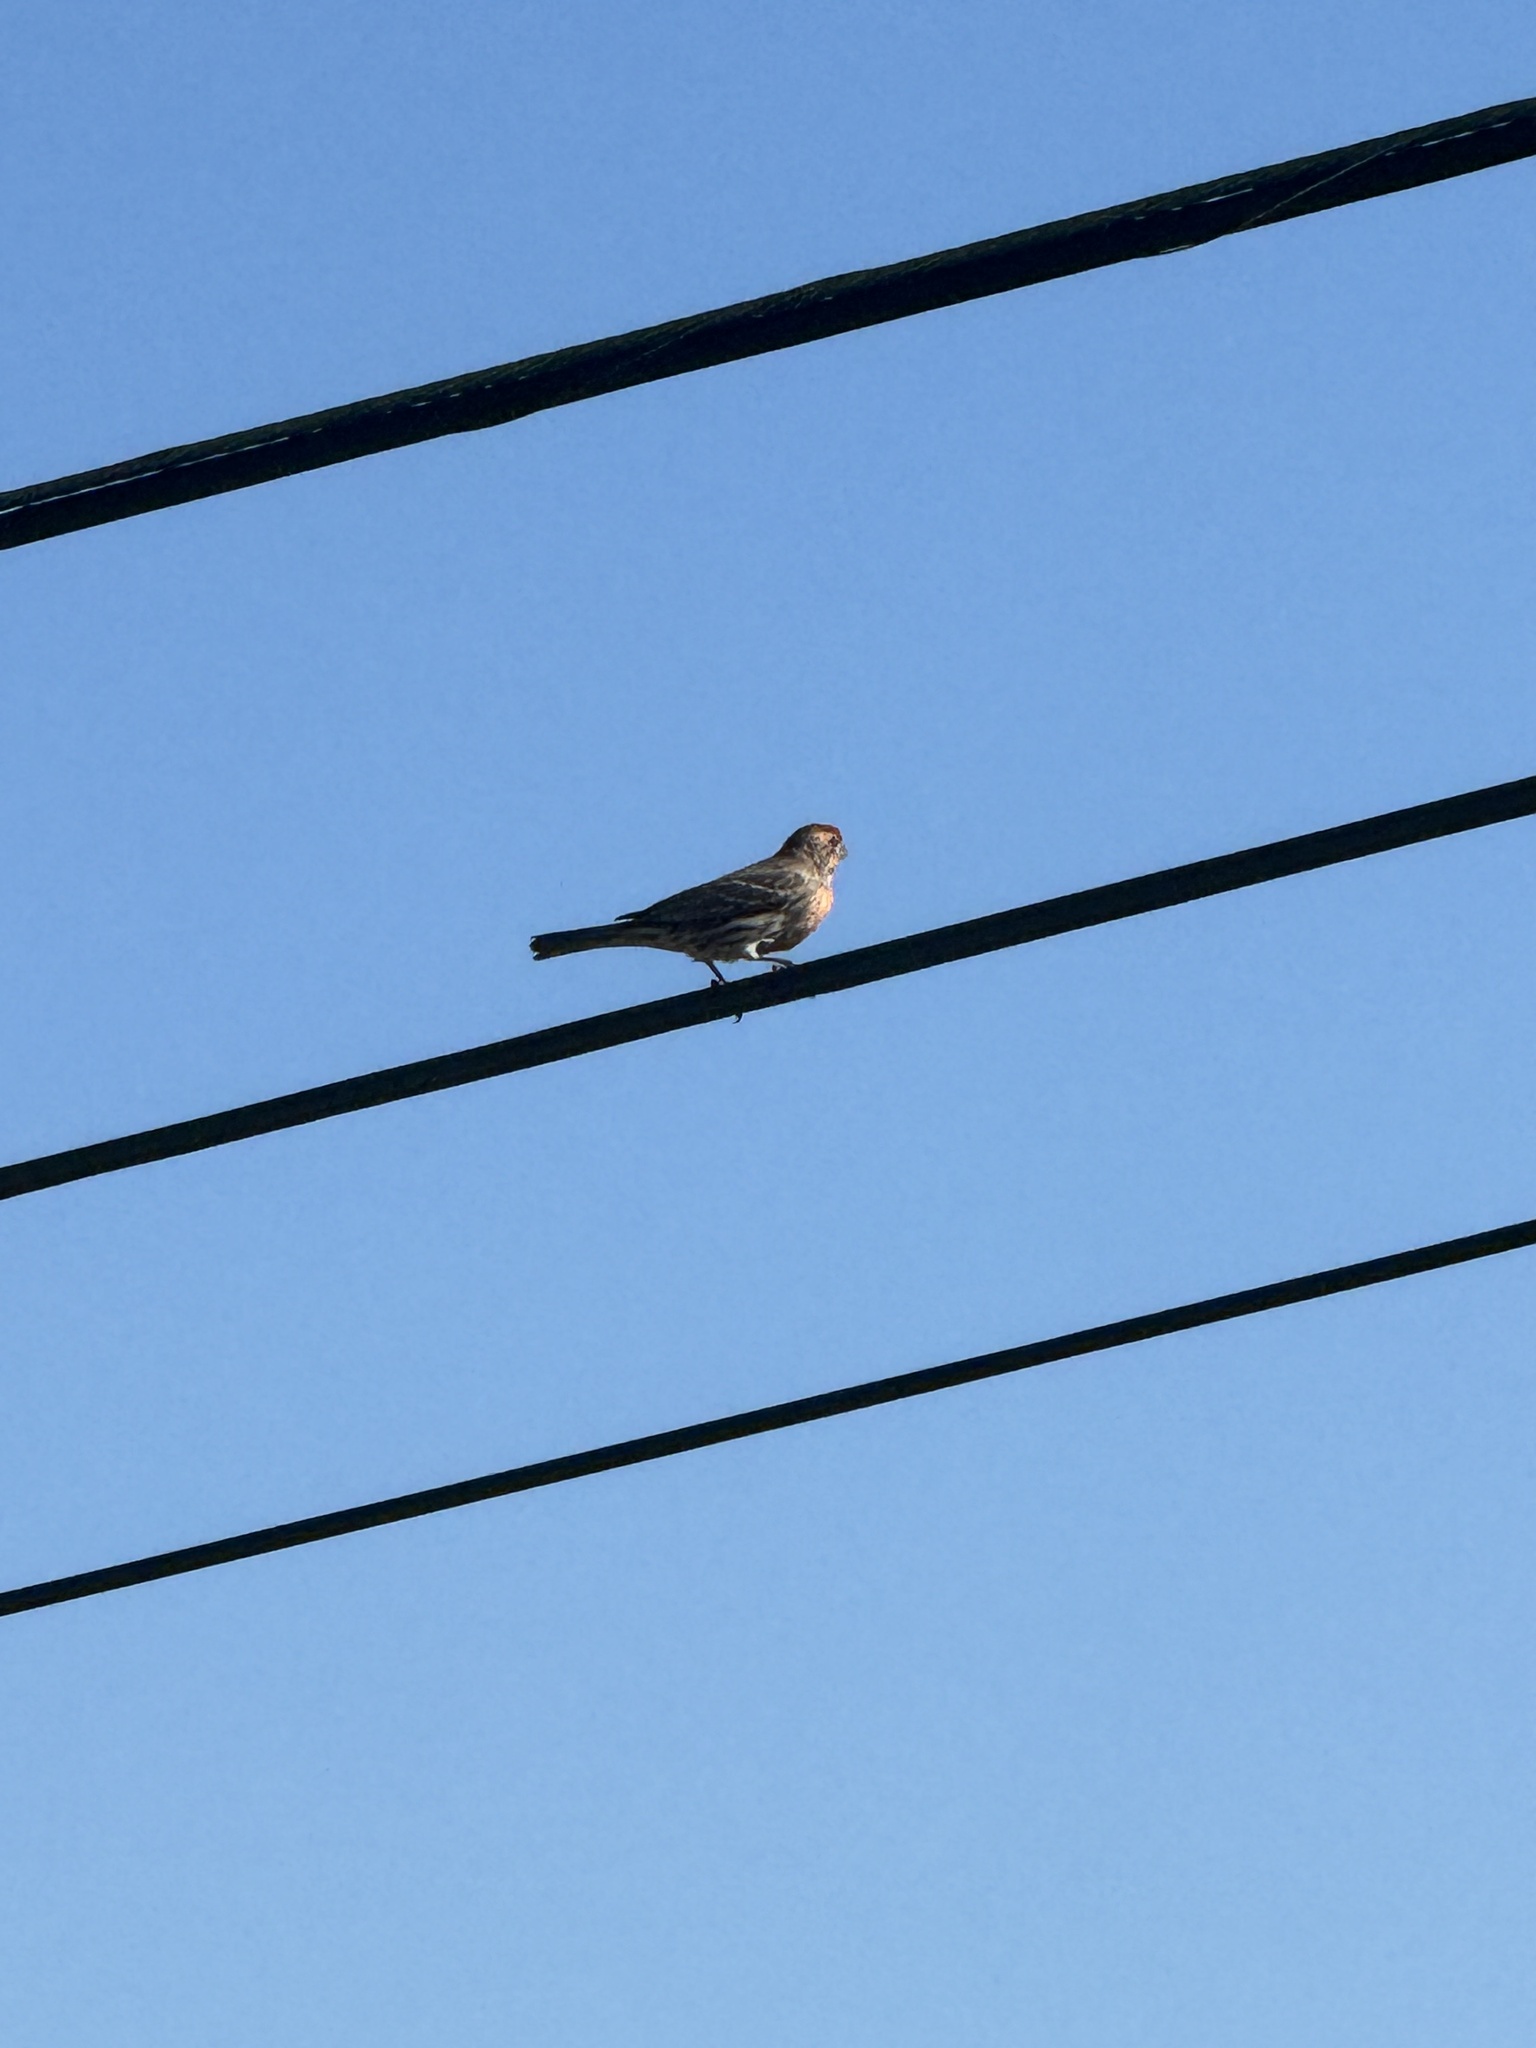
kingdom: Animalia
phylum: Chordata
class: Aves
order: Passeriformes
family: Fringillidae
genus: Haemorhous
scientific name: Haemorhous mexicanus
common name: House finch
